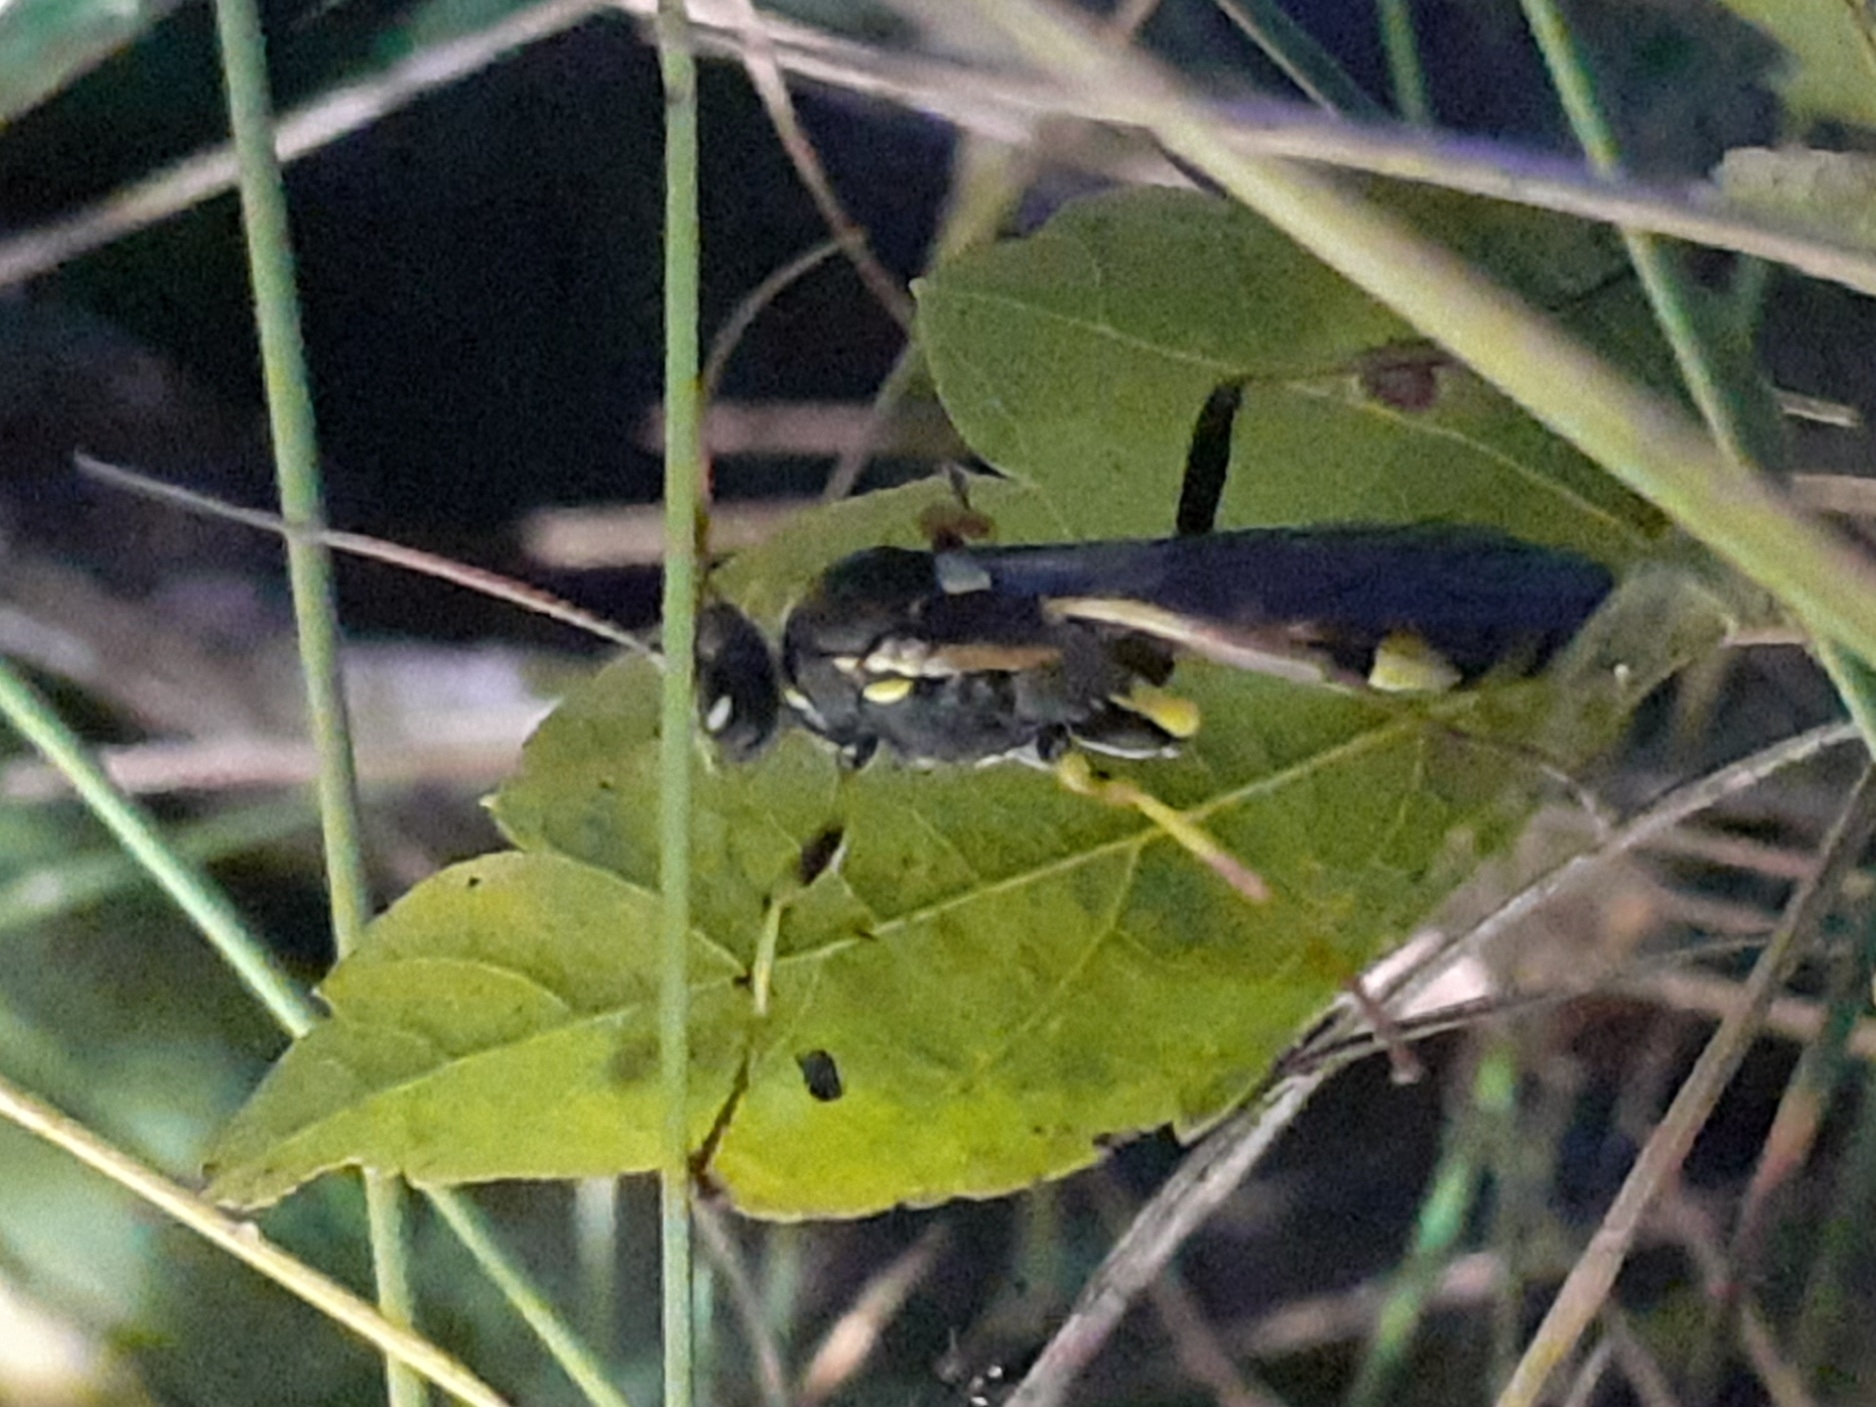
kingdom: Animalia
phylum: Arthropoda
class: Insecta
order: Hymenoptera
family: Ichneumonidae
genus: Amblyteles
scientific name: Amblyteles armatorius
